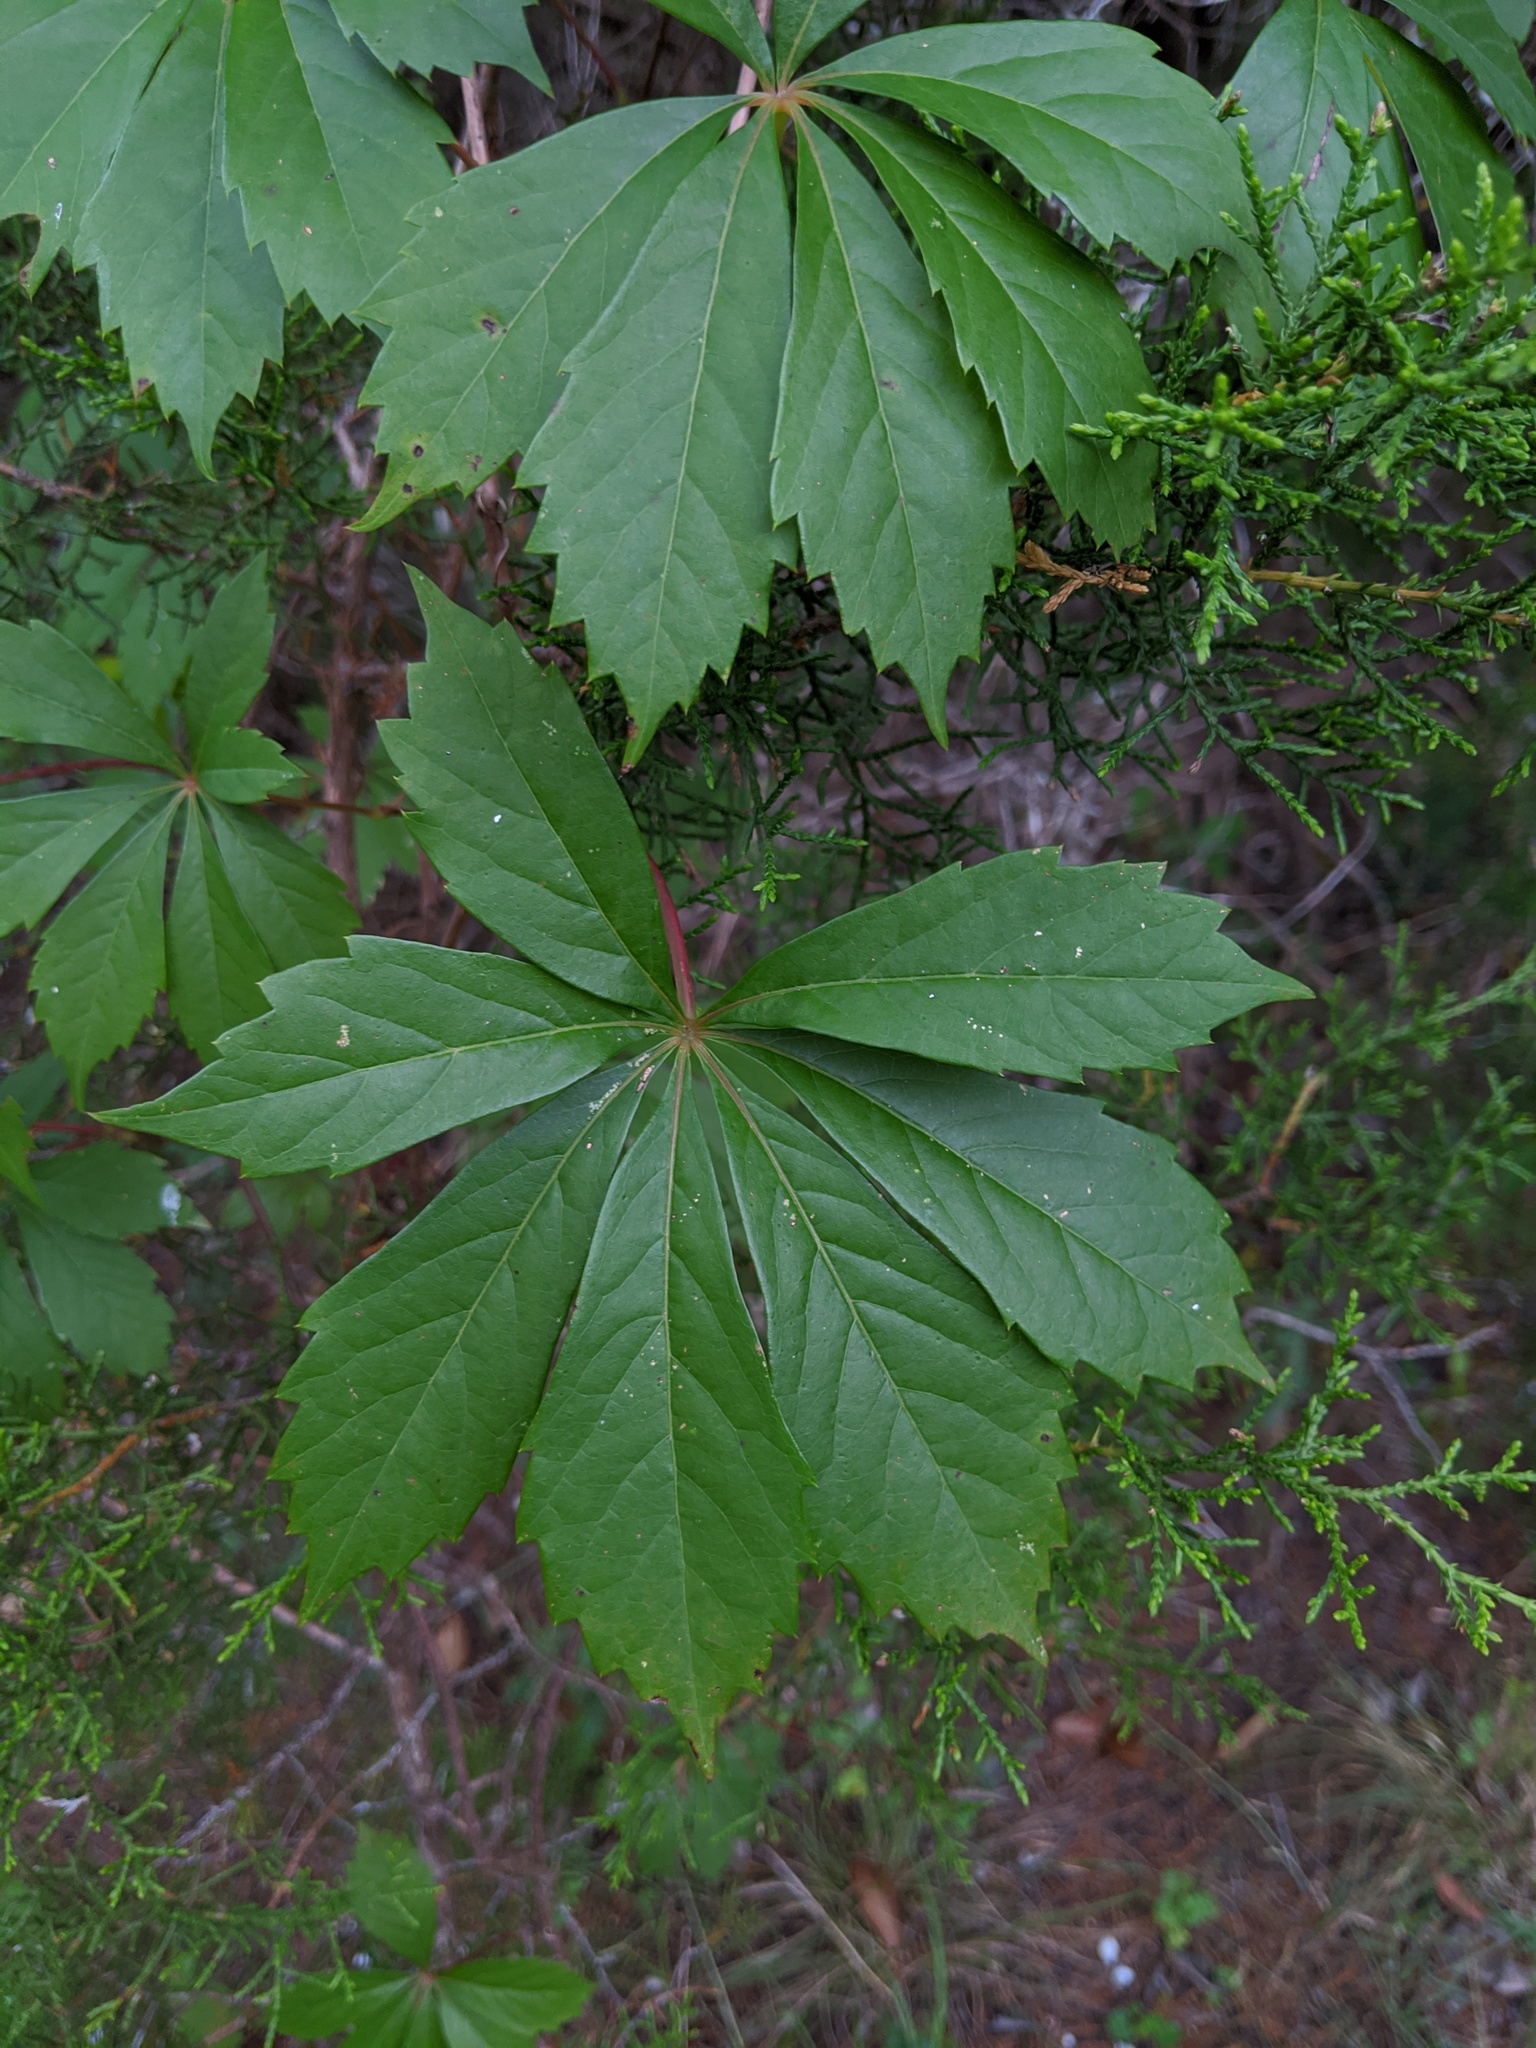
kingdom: Plantae
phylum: Tracheophyta
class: Magnoliopsida
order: Vitales
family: Vitaceae
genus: Parthenocissus
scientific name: Parthenocissus heptaphylla
